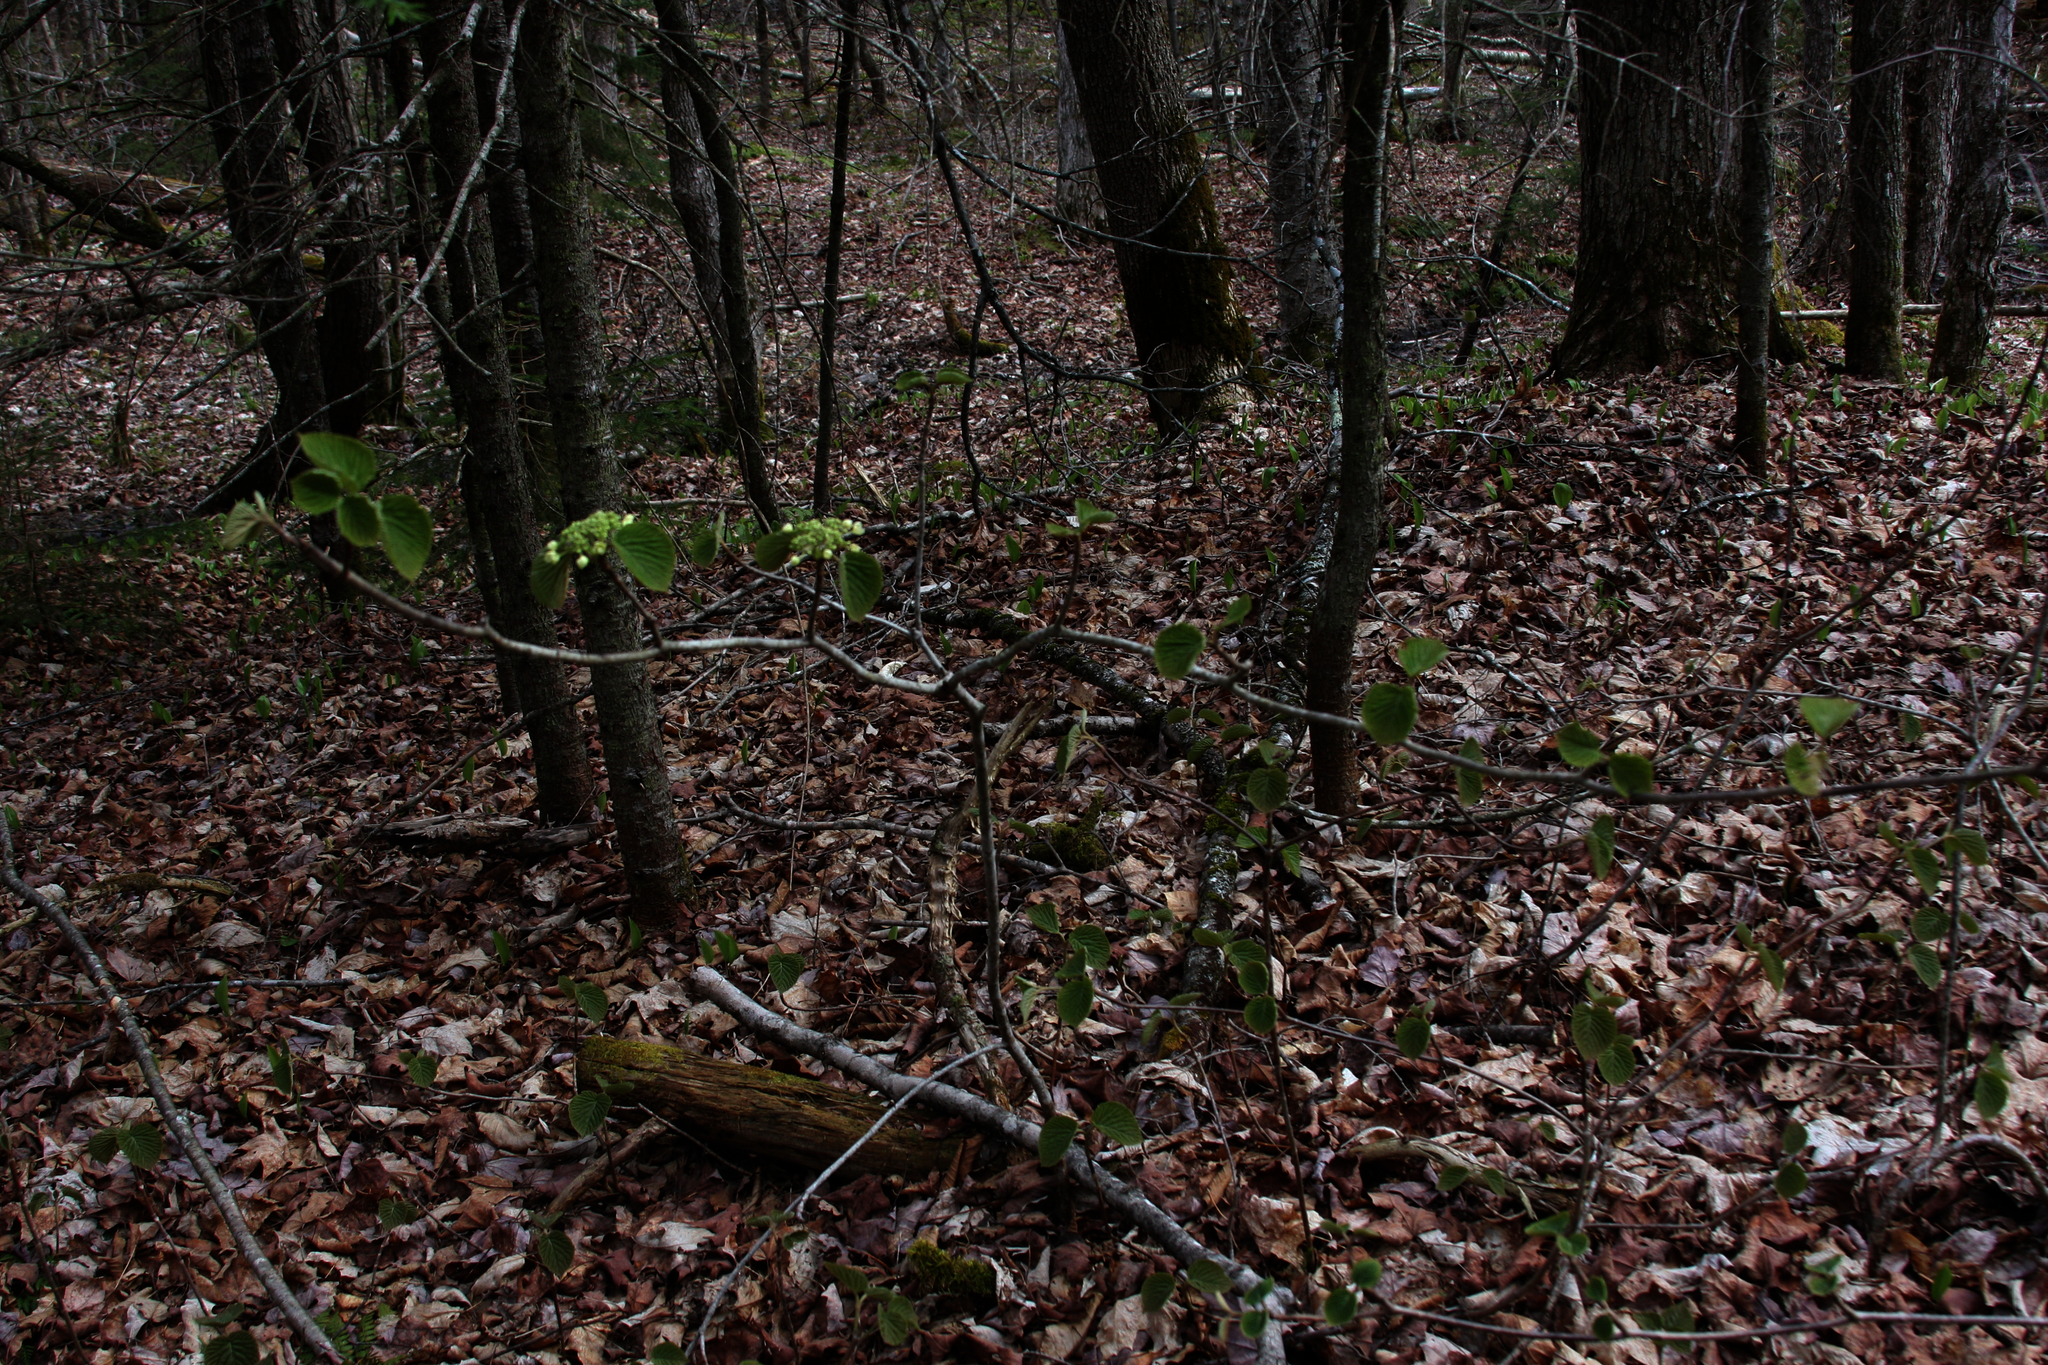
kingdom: Plantae
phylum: Tracheophyta
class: Magnoliopsida
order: Dipsacales
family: Viburnaceae
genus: Viburnum
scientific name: Viburnum lantanoides
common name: Hobblebush
